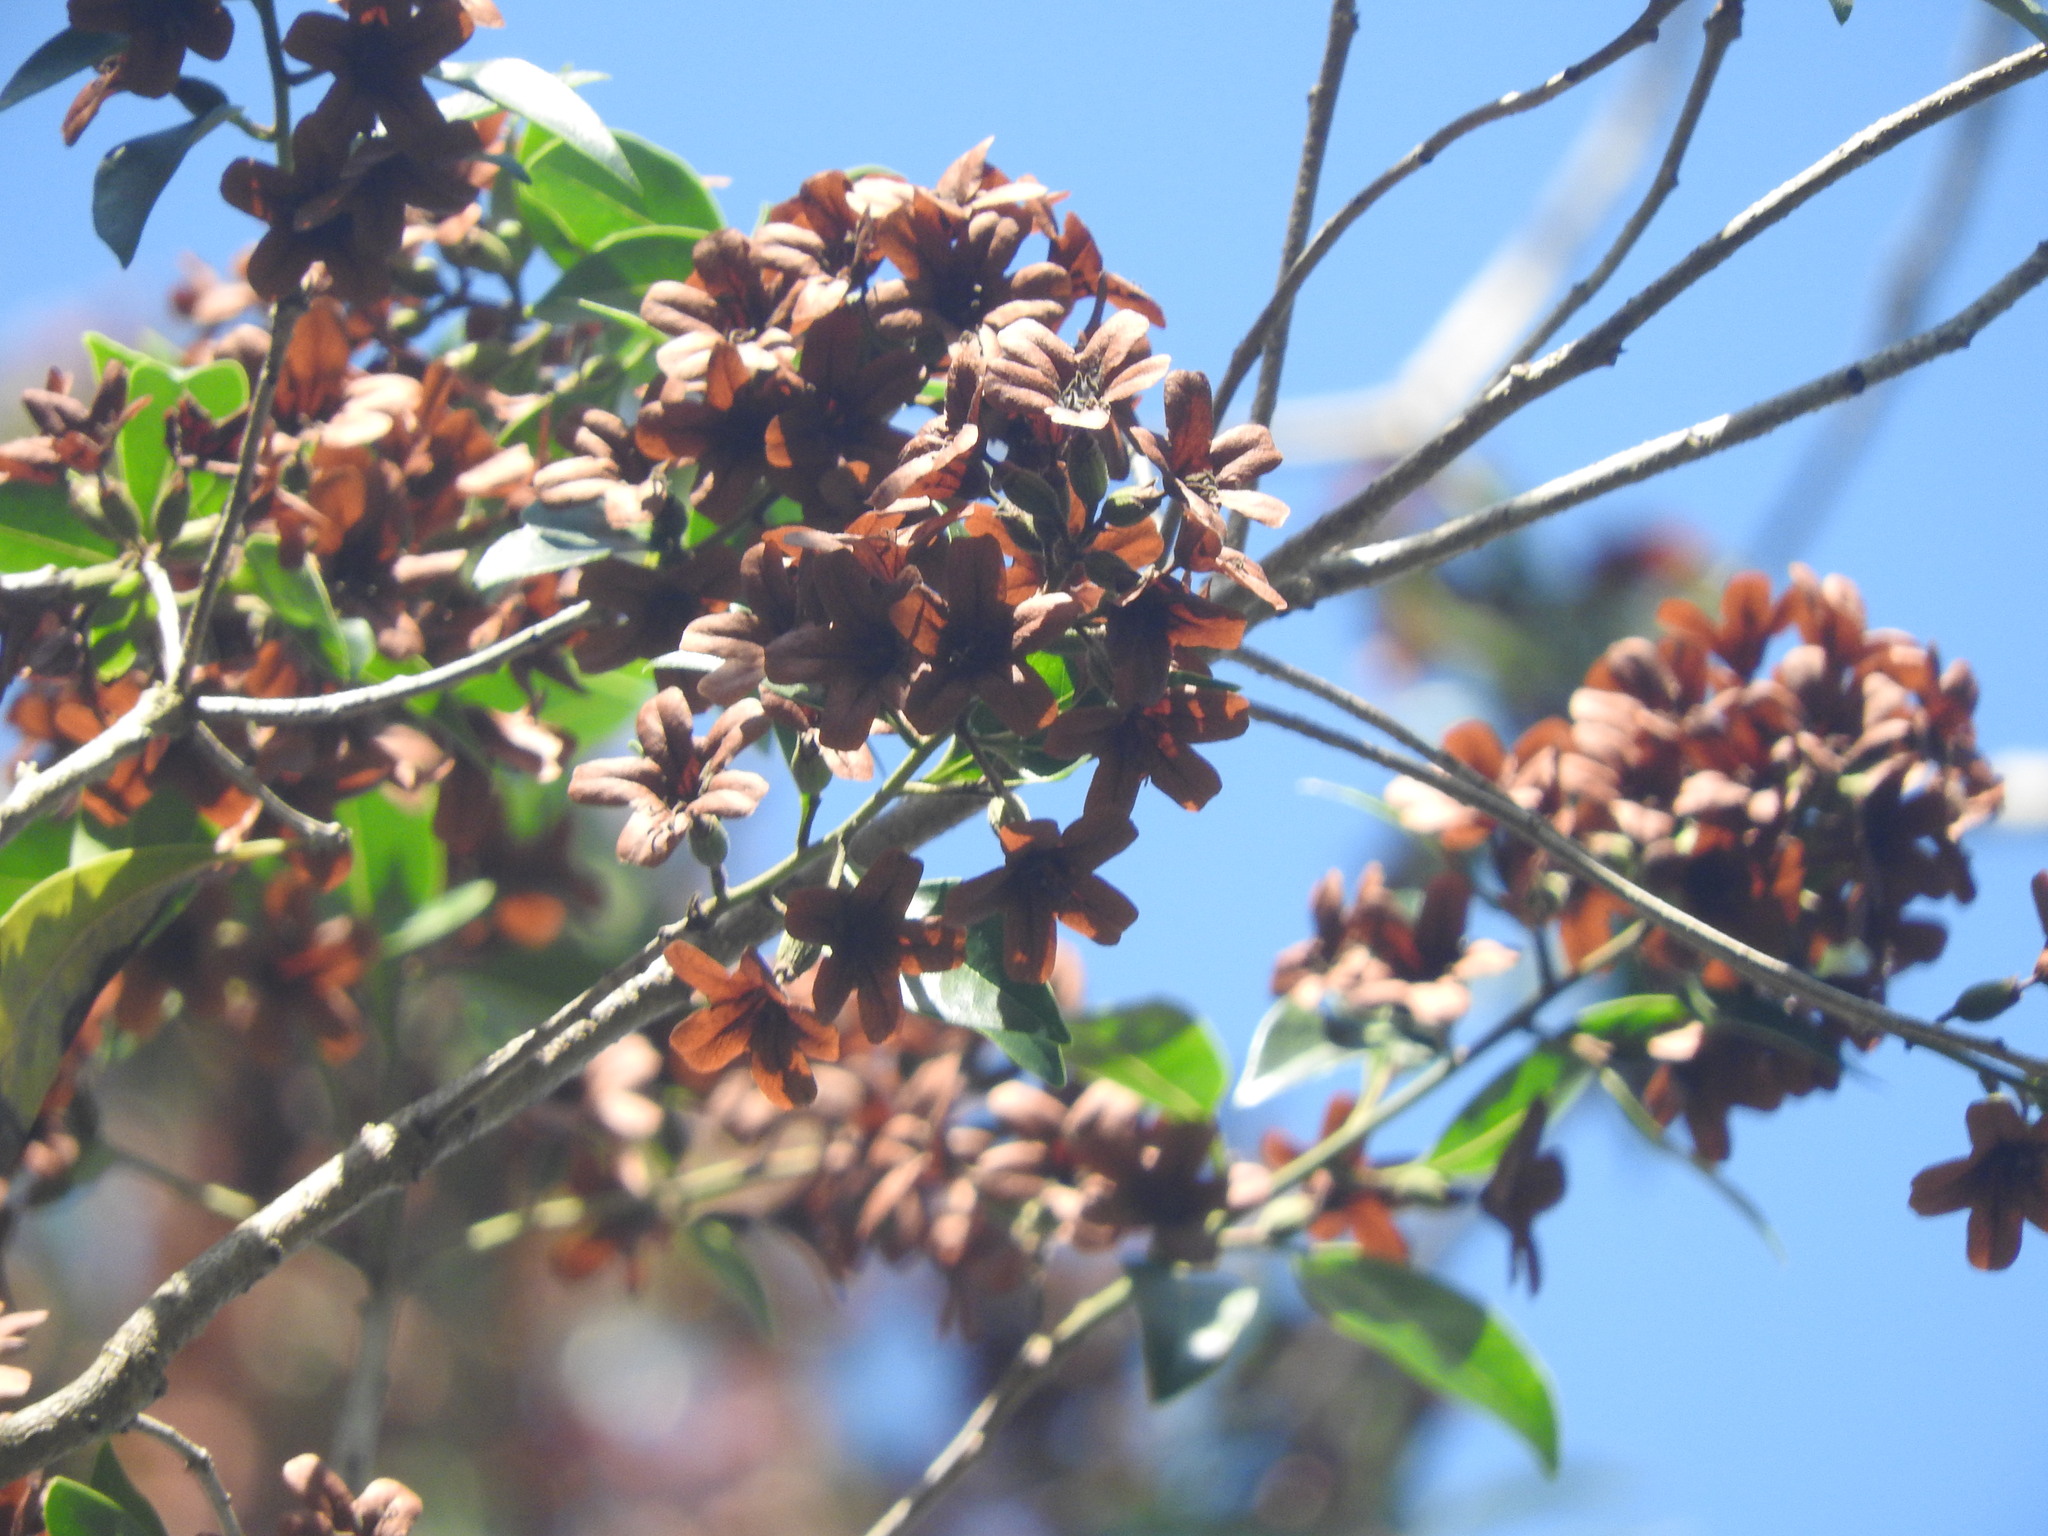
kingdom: Plantae
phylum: Tracheophyta
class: Magnoliopsida
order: Boraginales
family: Cordiaceae
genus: Cordia
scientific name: Cordia alliodora
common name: Spanish elm
